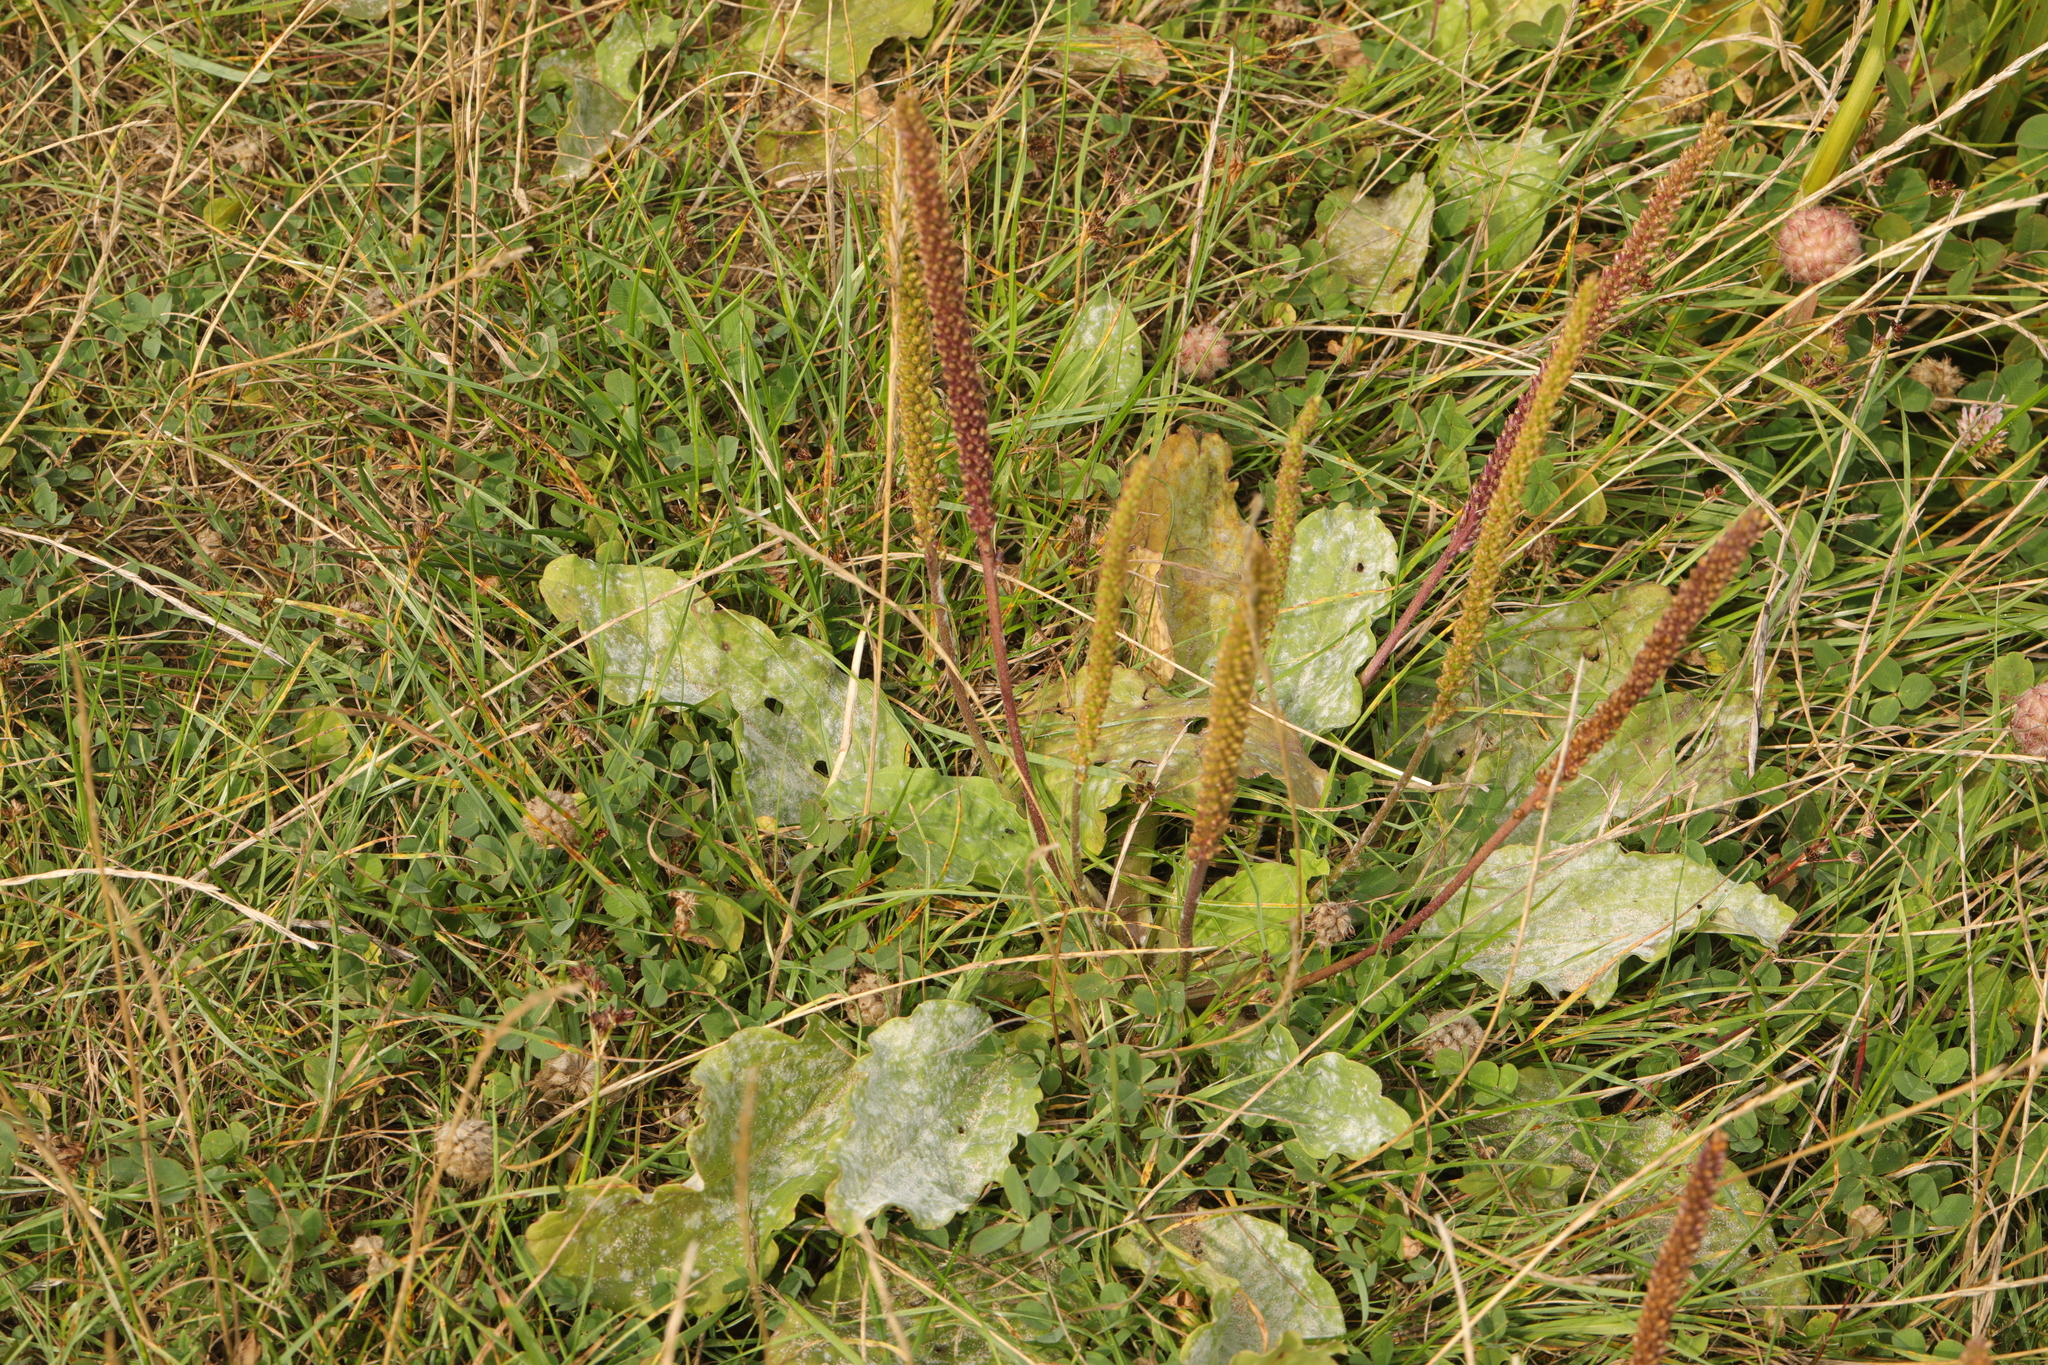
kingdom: Plantae
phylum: Tracheophyta
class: Magnoliopsida
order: Lamiales
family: Plantaginaceae
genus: Plantago
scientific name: Plantago major
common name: Common plantain
